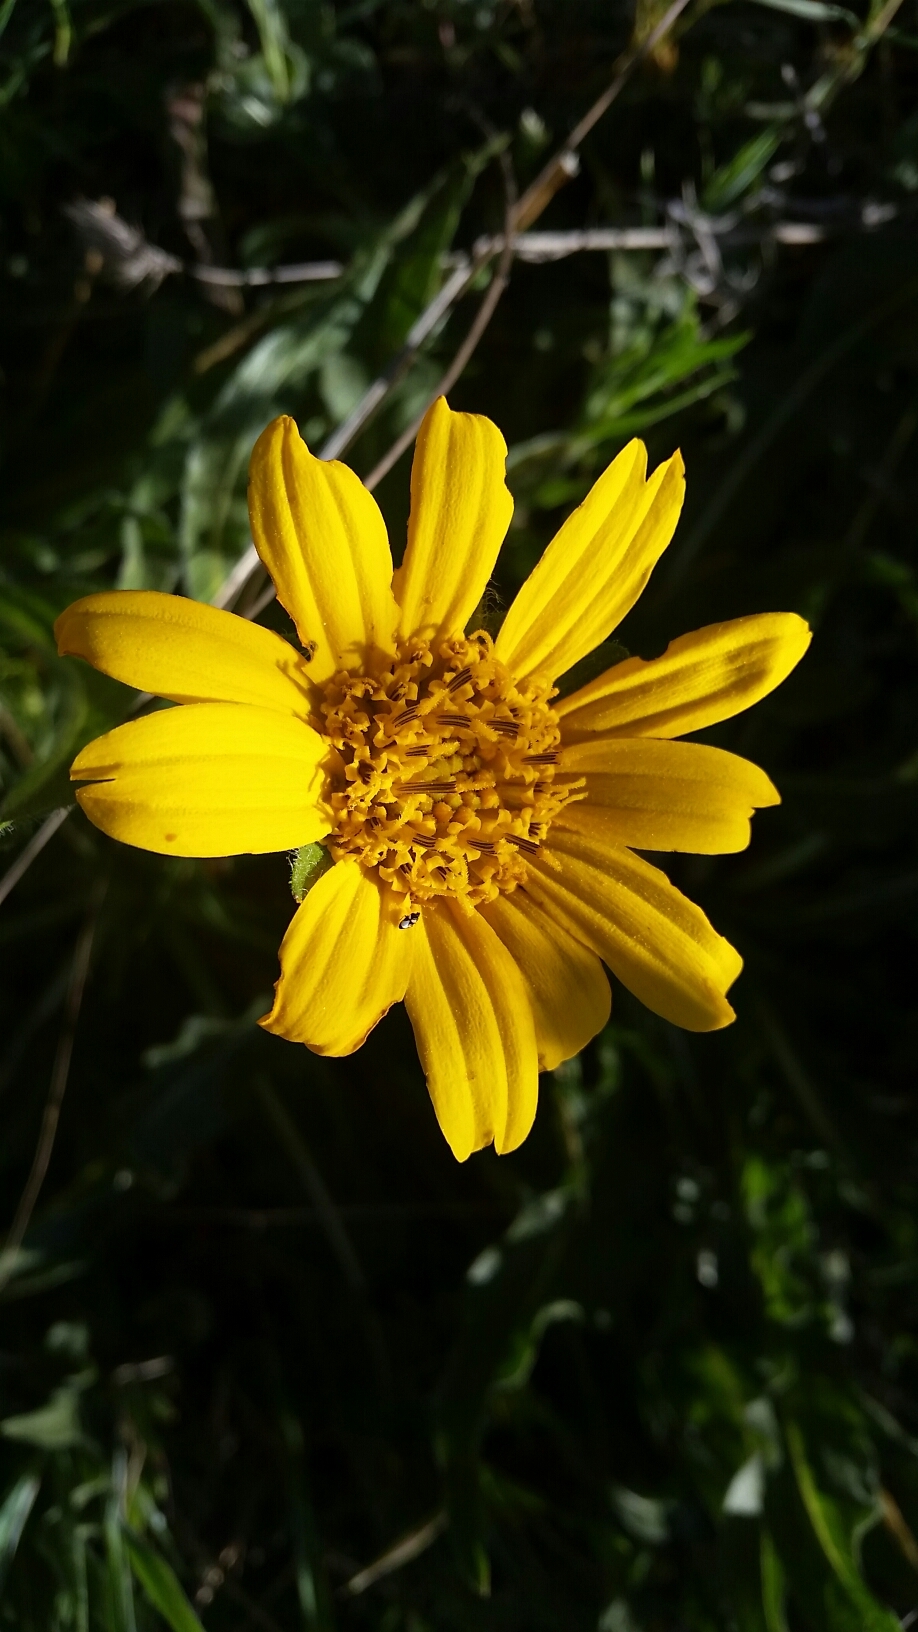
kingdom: Plantae
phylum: Tracheophyta
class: Magnoliopsida
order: Asterales
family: Asteraceae
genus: Wyethia
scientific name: Wyethia angustifolia
